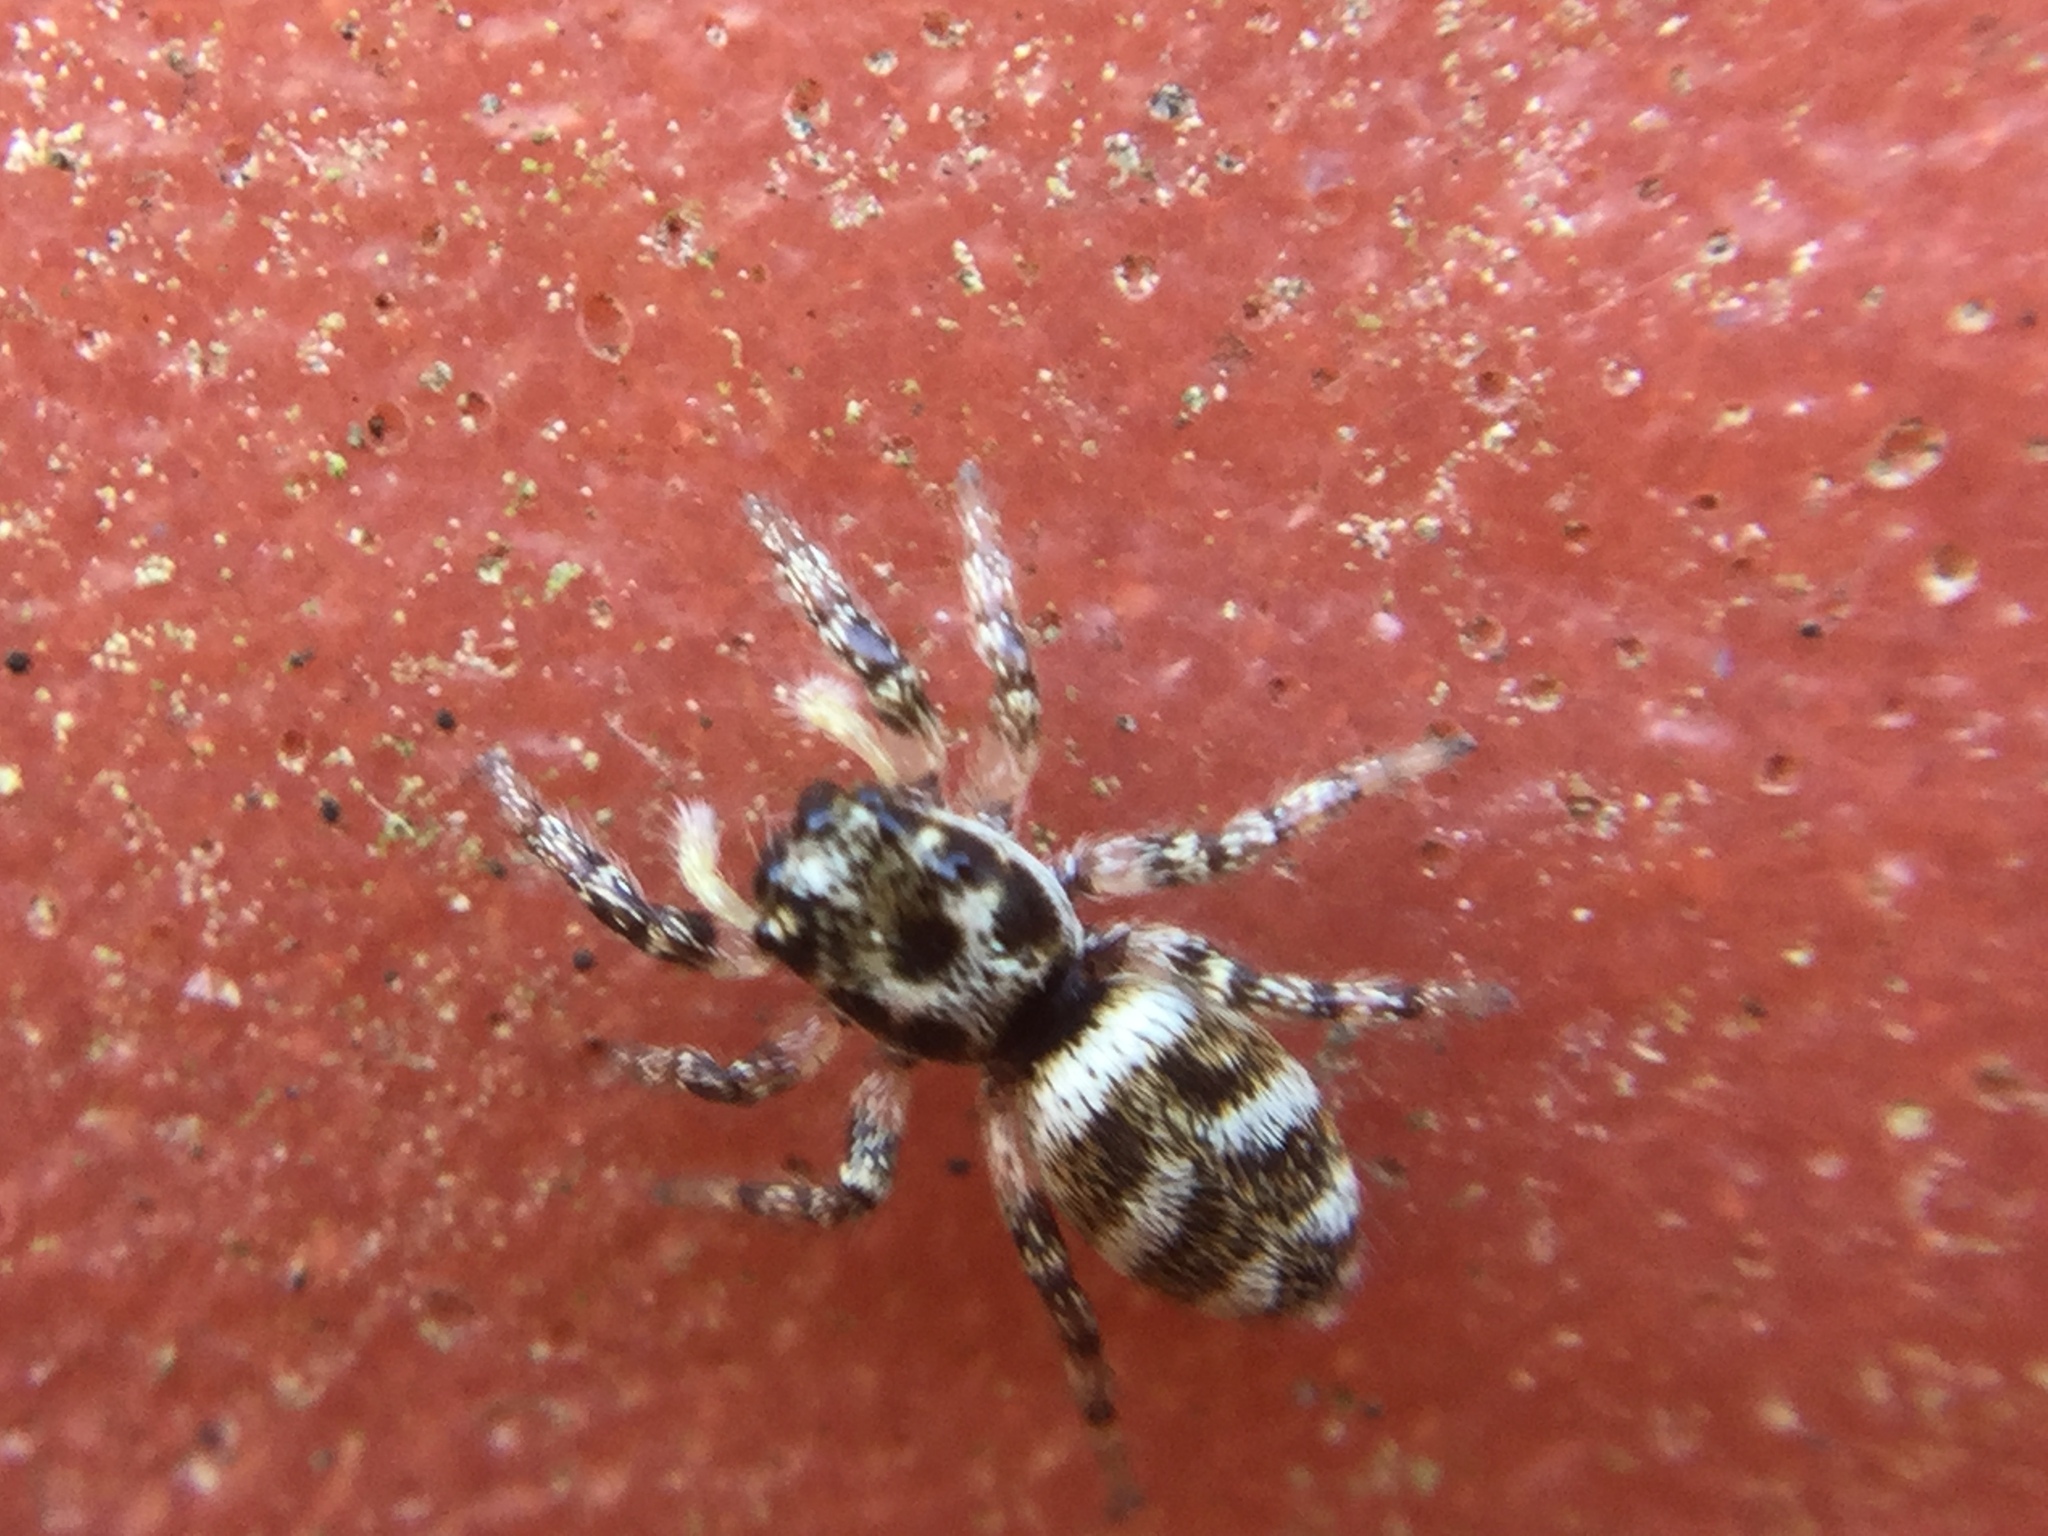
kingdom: Animalia
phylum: Arthropoda
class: Arachnida
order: Araneae
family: Salticidae
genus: Salticus
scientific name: Salticus scenicus
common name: Zebra jumper
